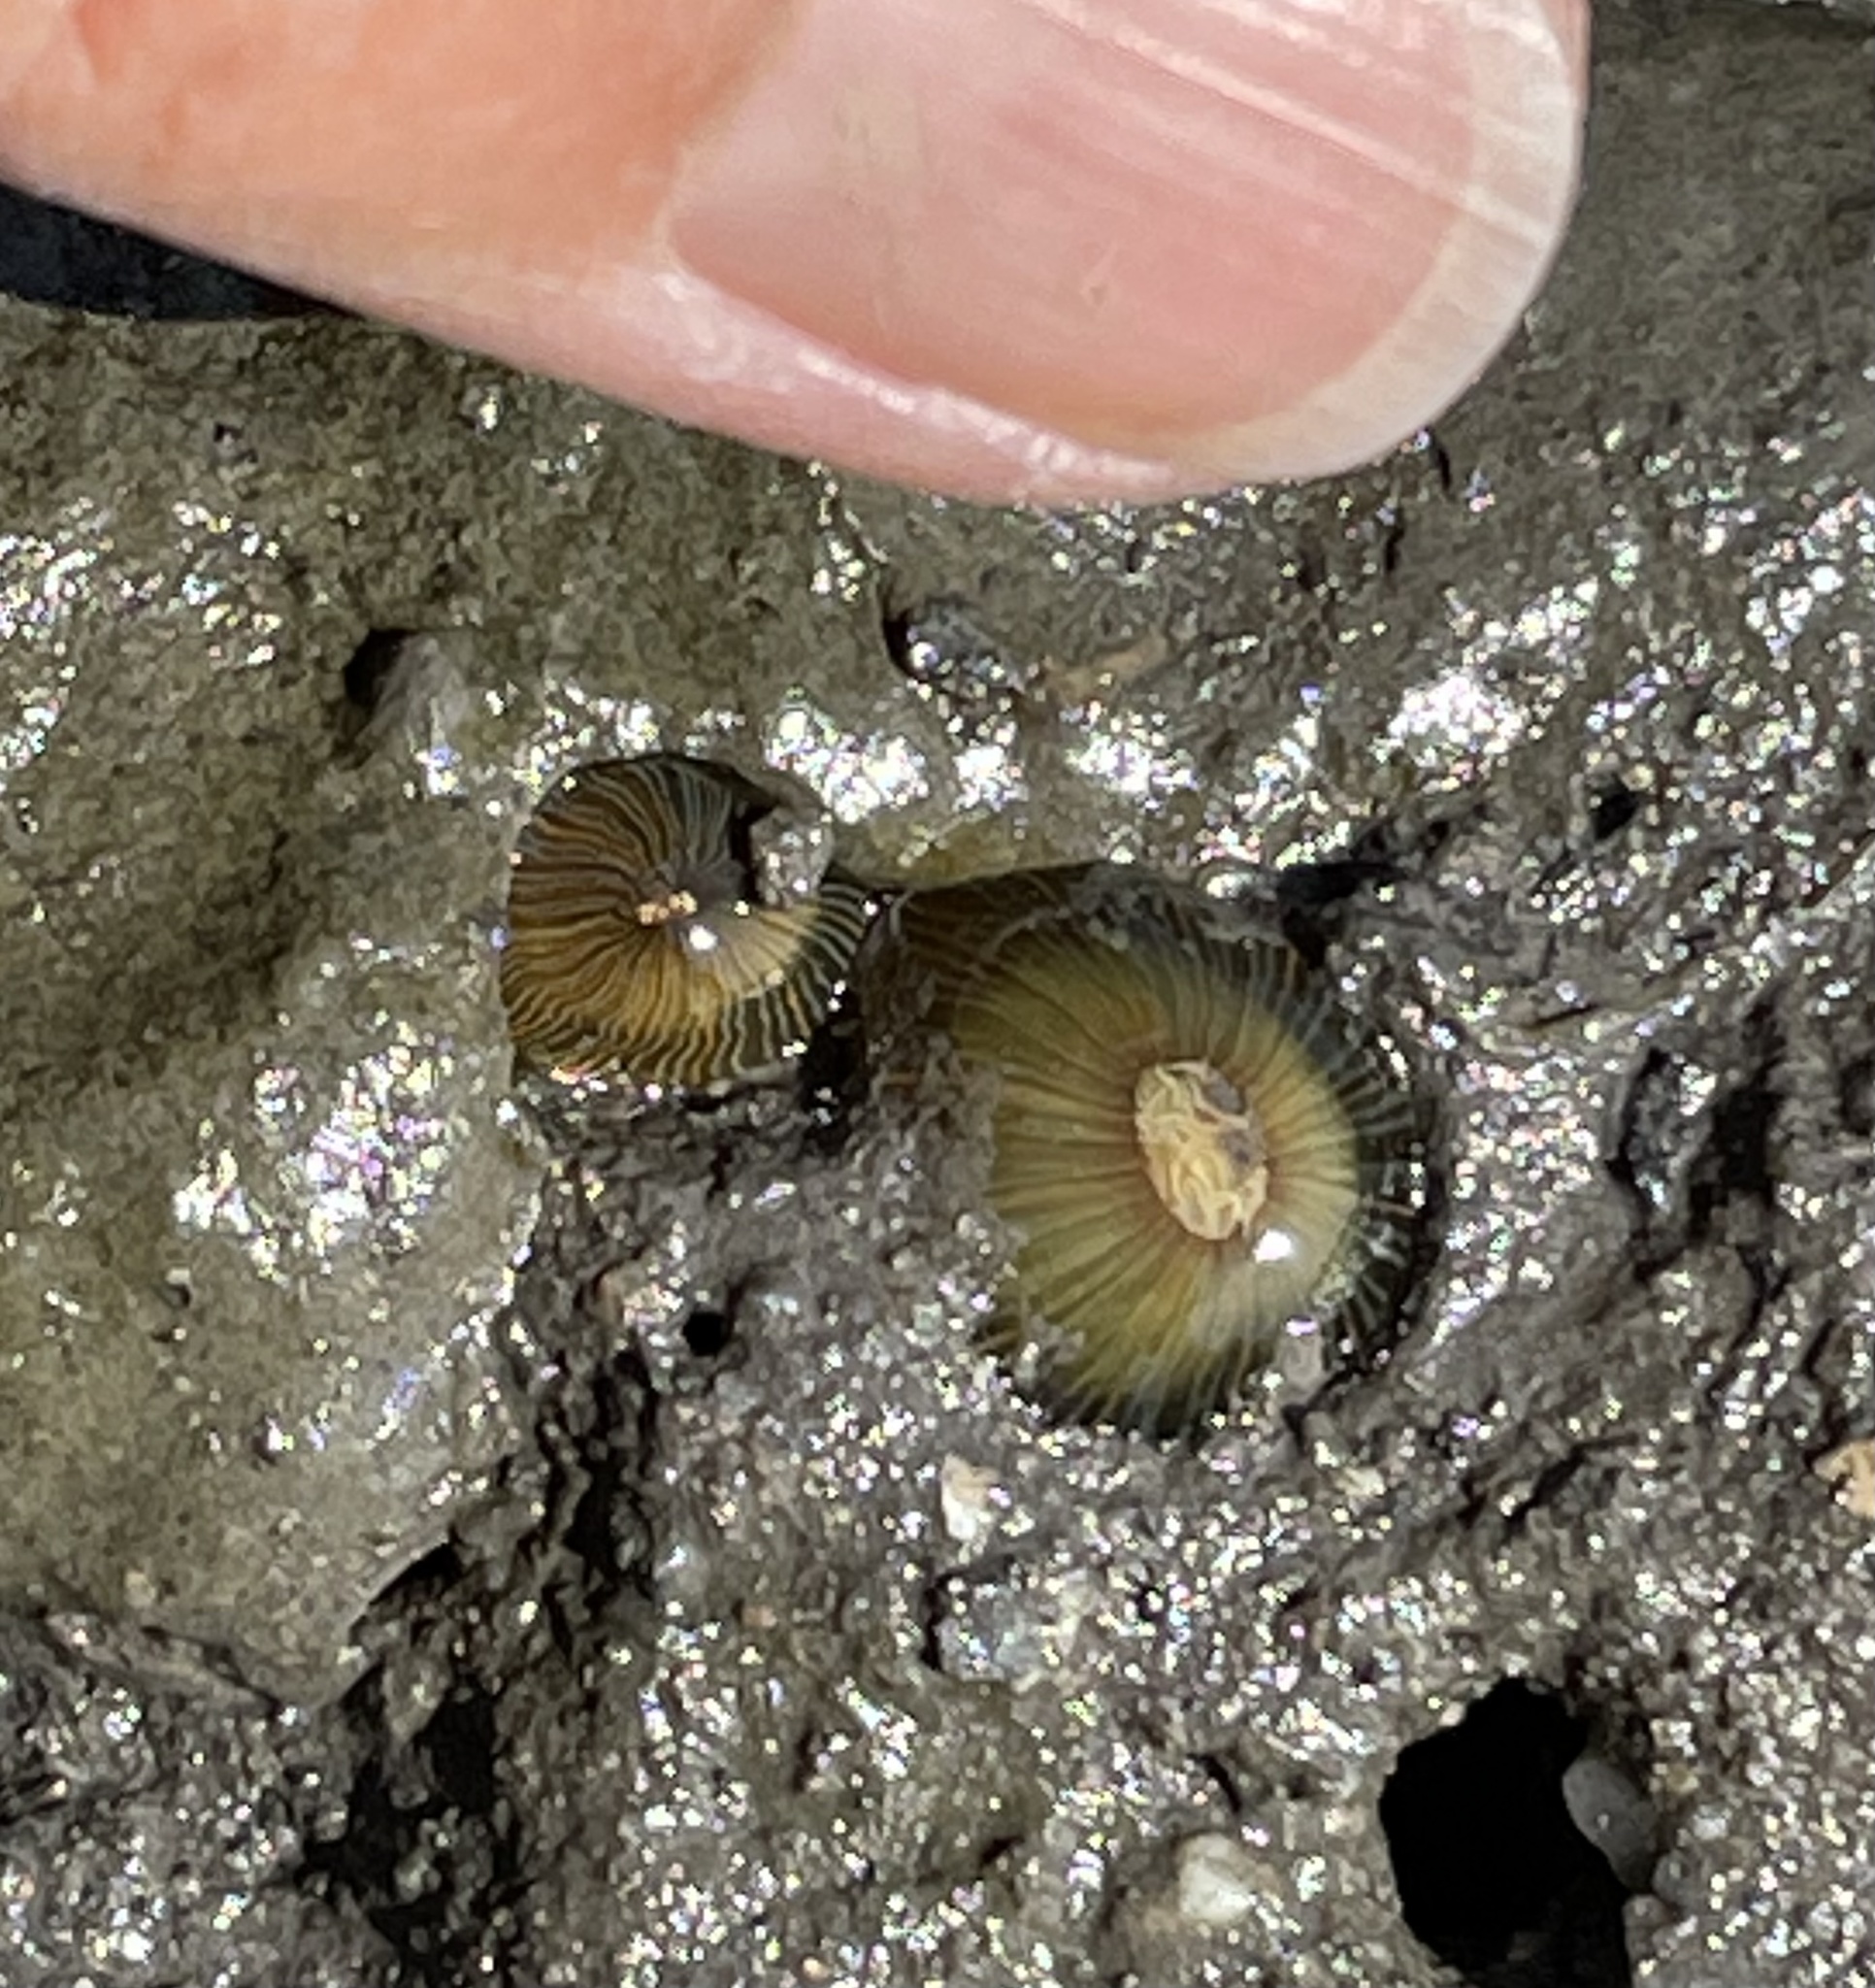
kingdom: Animalia
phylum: Cnidaria
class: Anthozoa
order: Actiniaria
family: Diadumenidae
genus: Diadumene
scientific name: Diadumene lineata
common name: Orange-striped anemone
